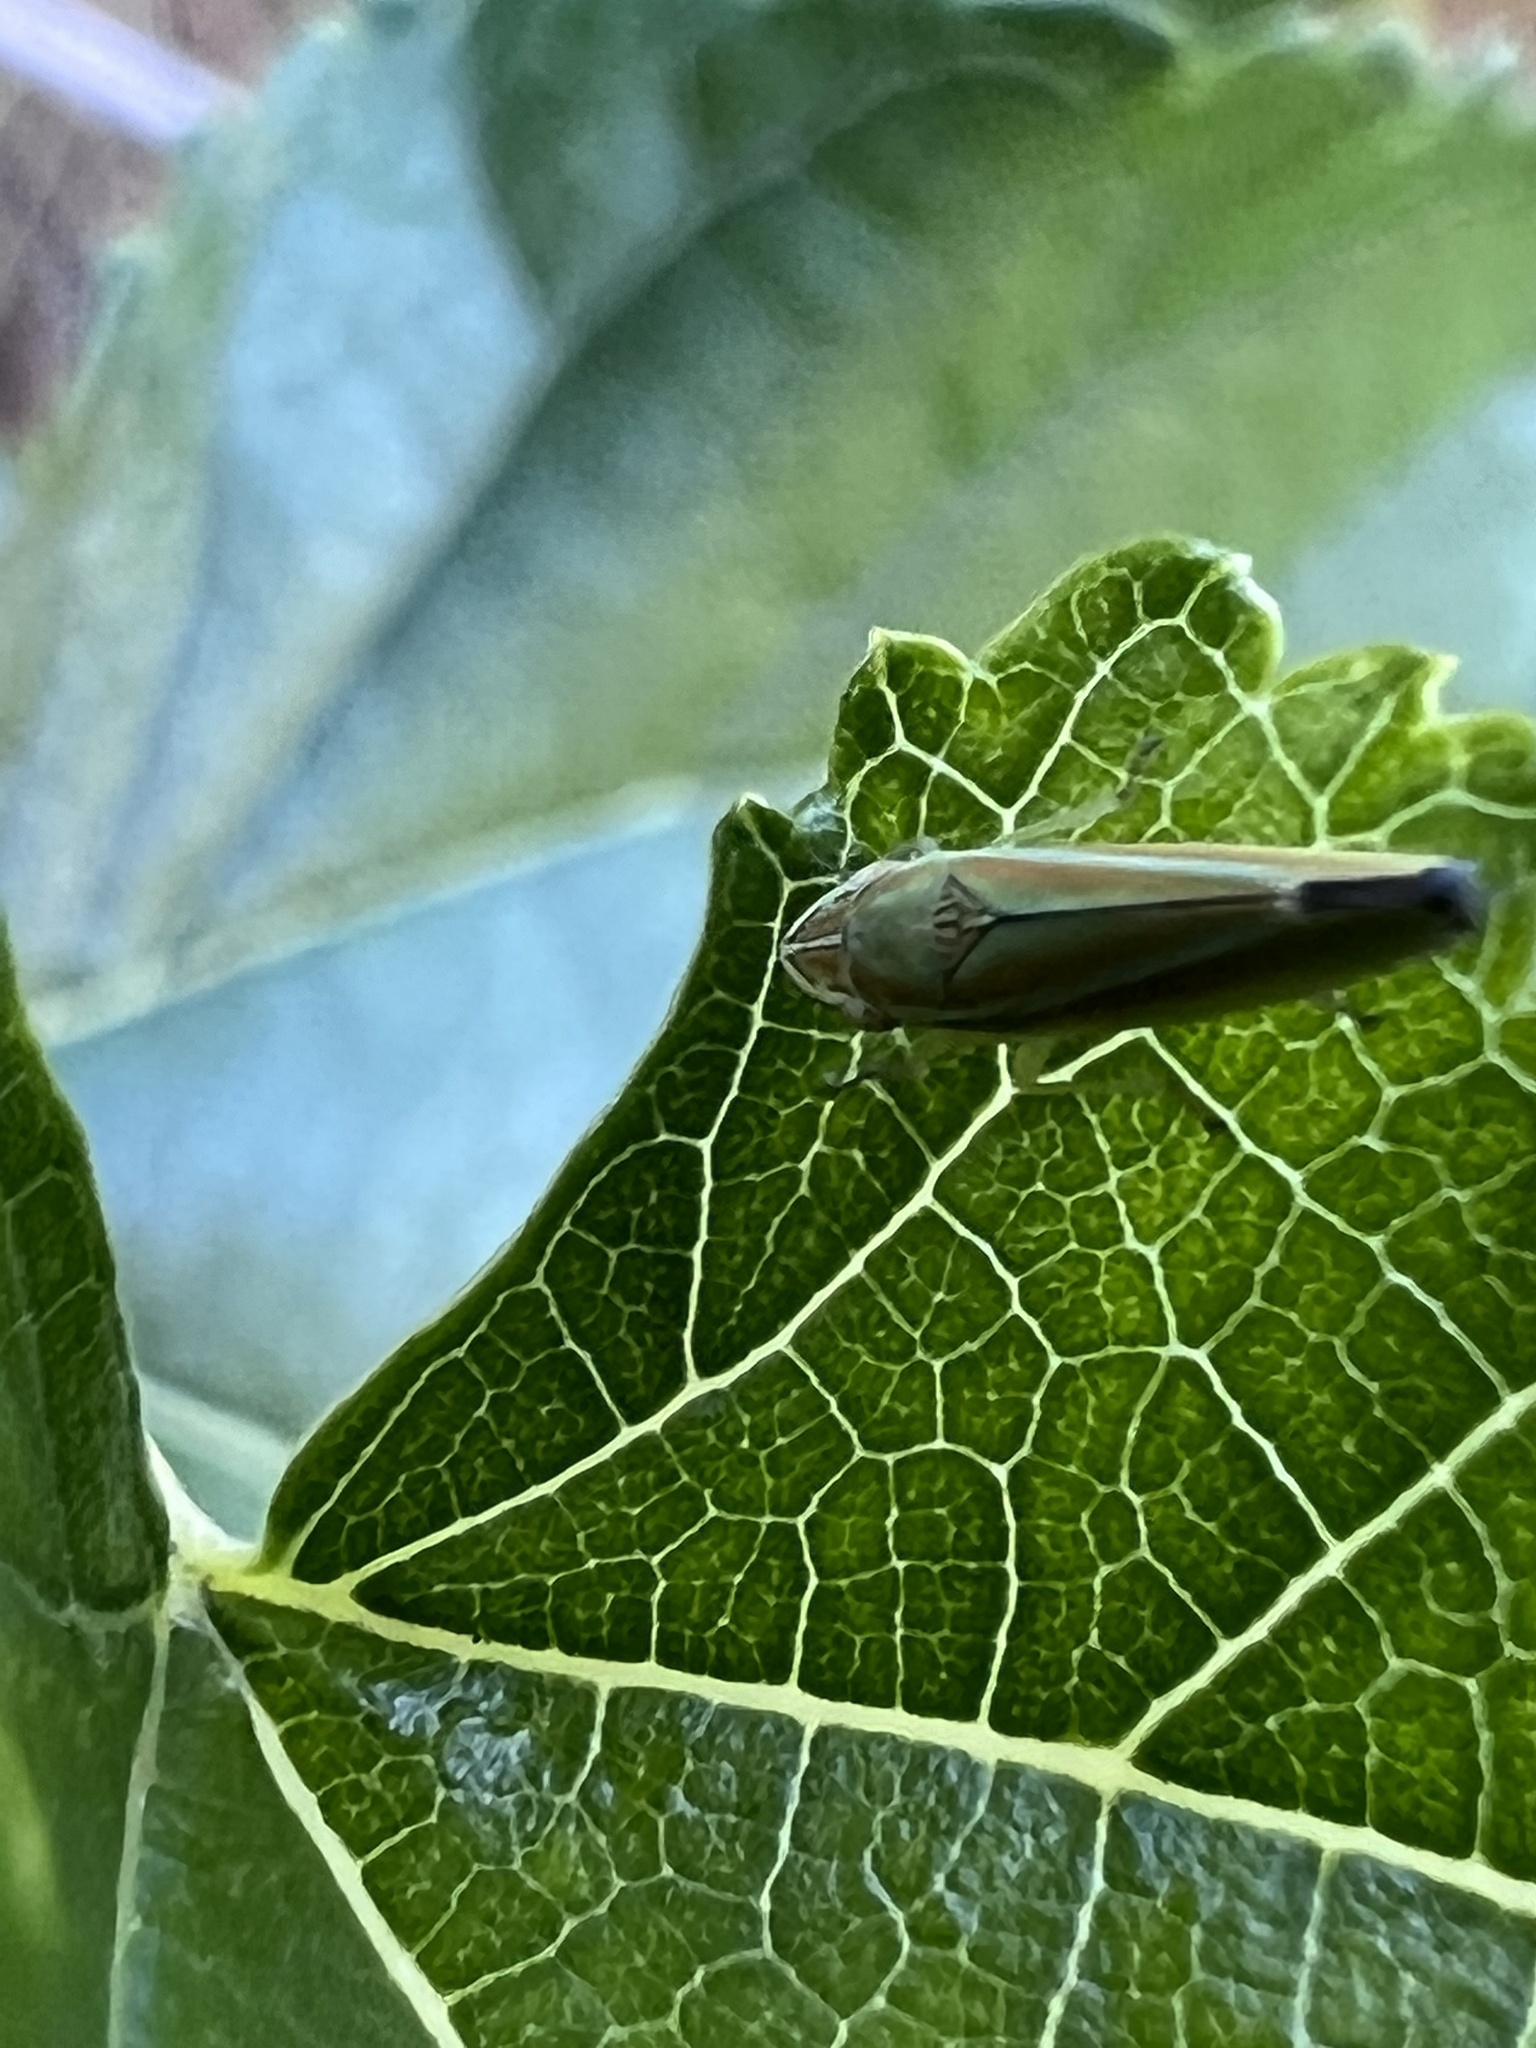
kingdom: Animalia
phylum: Arthropoda
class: Insecta
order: Hemiptera
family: Cicadellidae
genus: Graphocephala
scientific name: Graphocephala versuta
